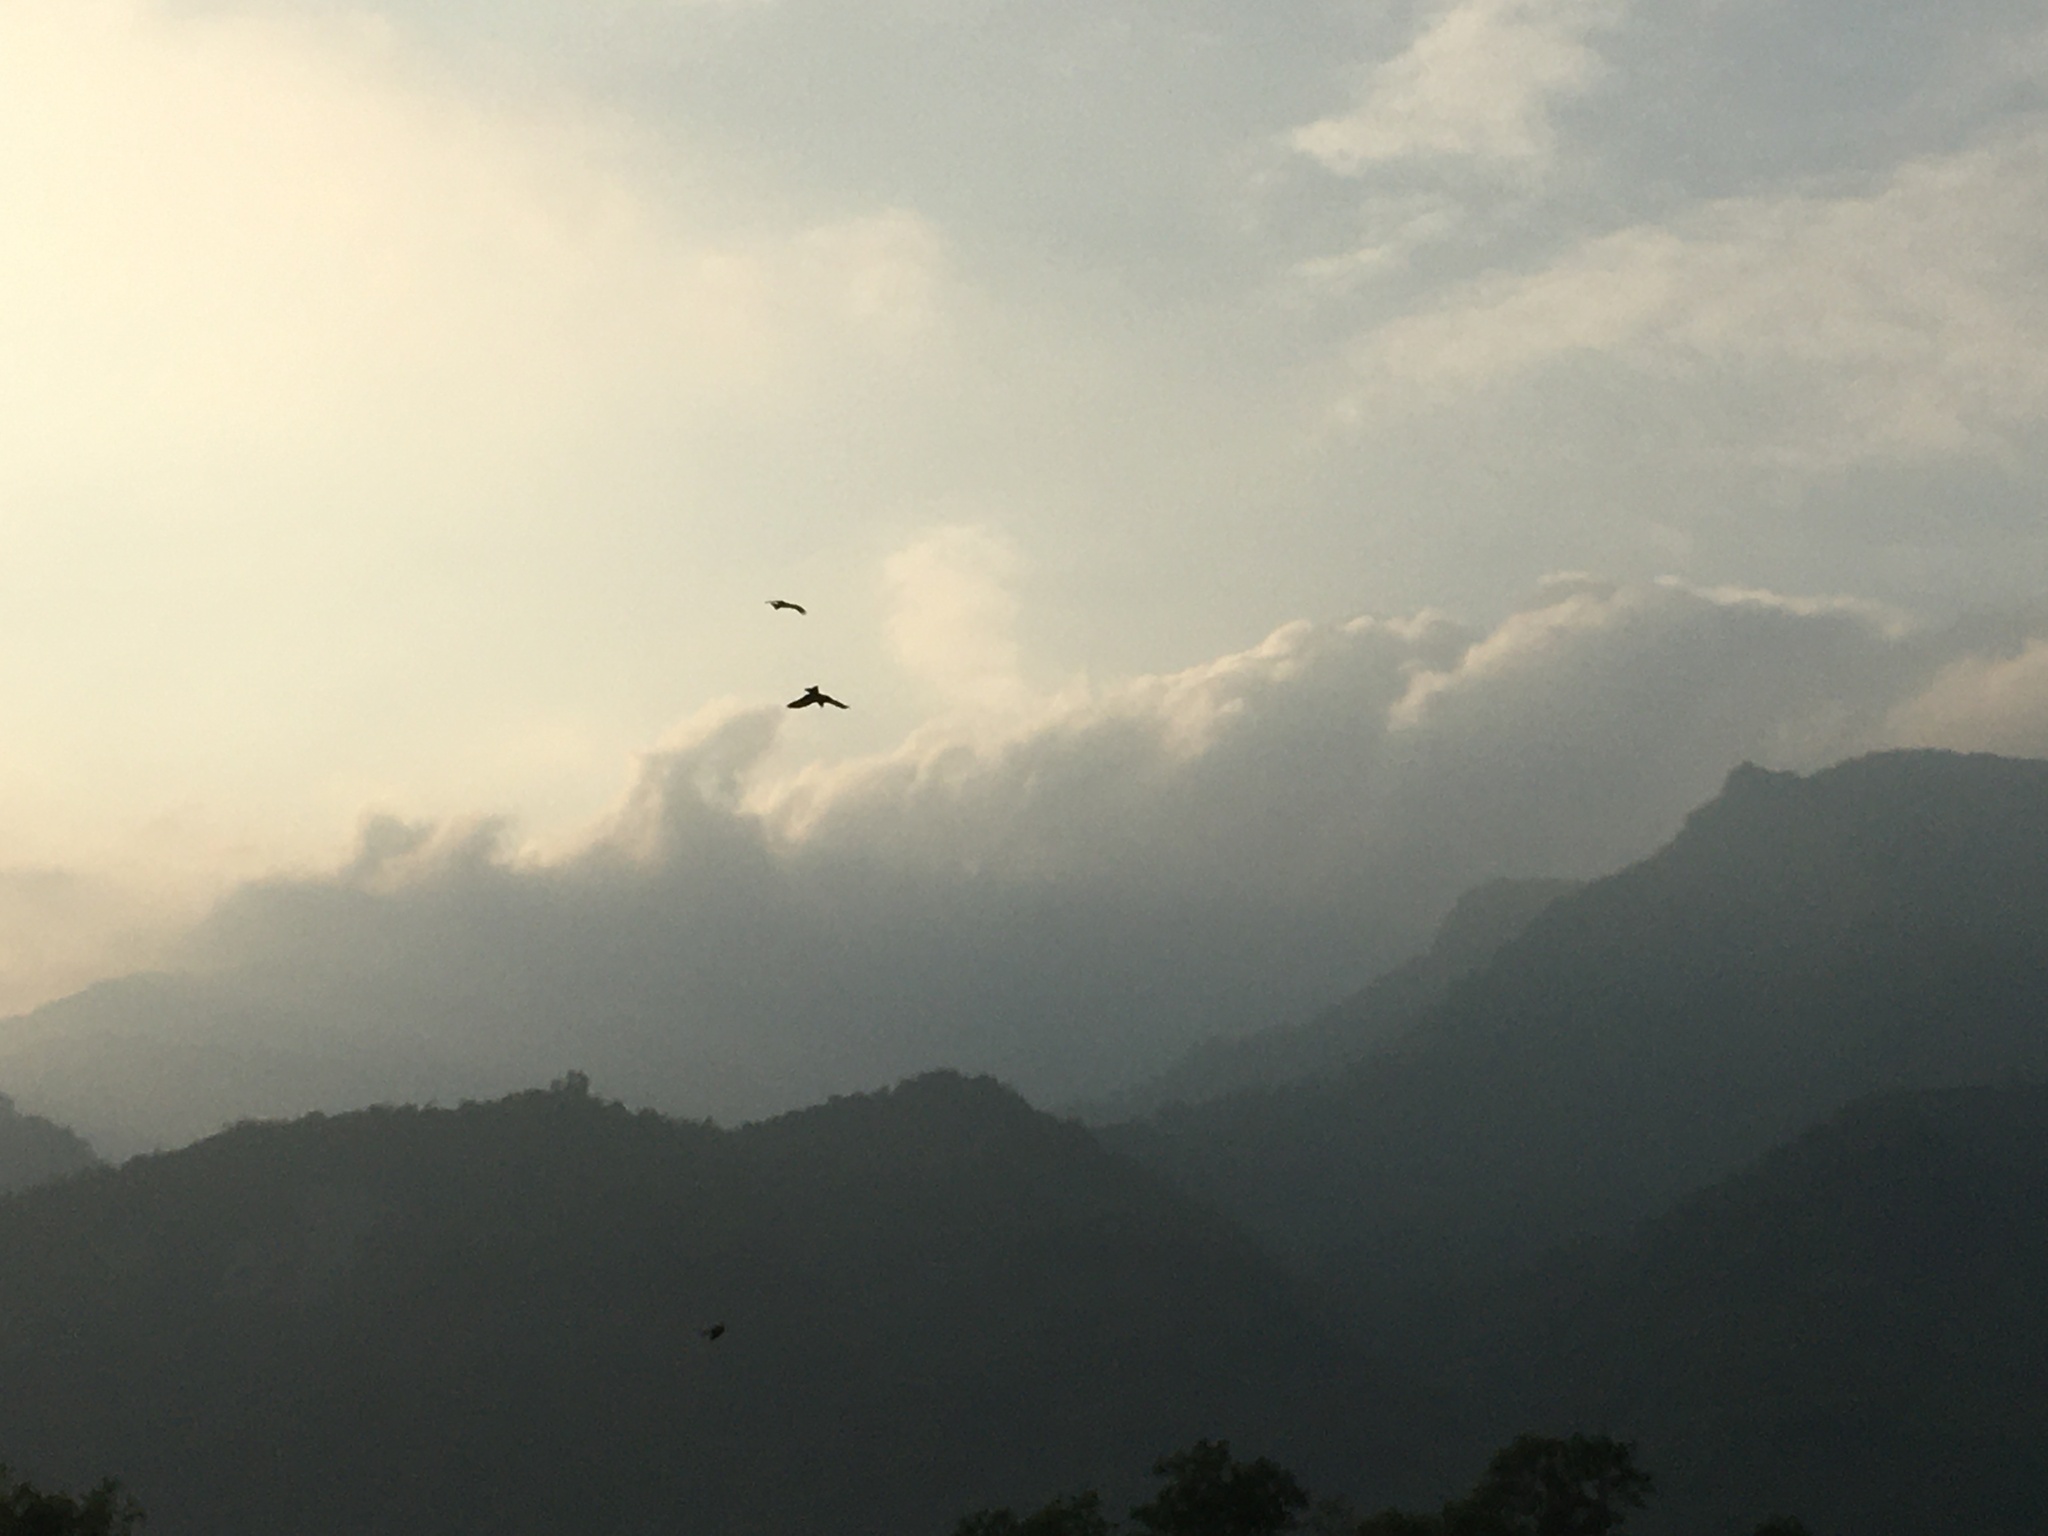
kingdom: Animalia
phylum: Chordata
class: Aves
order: Accipitriformes
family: Accipitridae
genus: Milvus
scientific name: Milvus migrans
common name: Black kite
